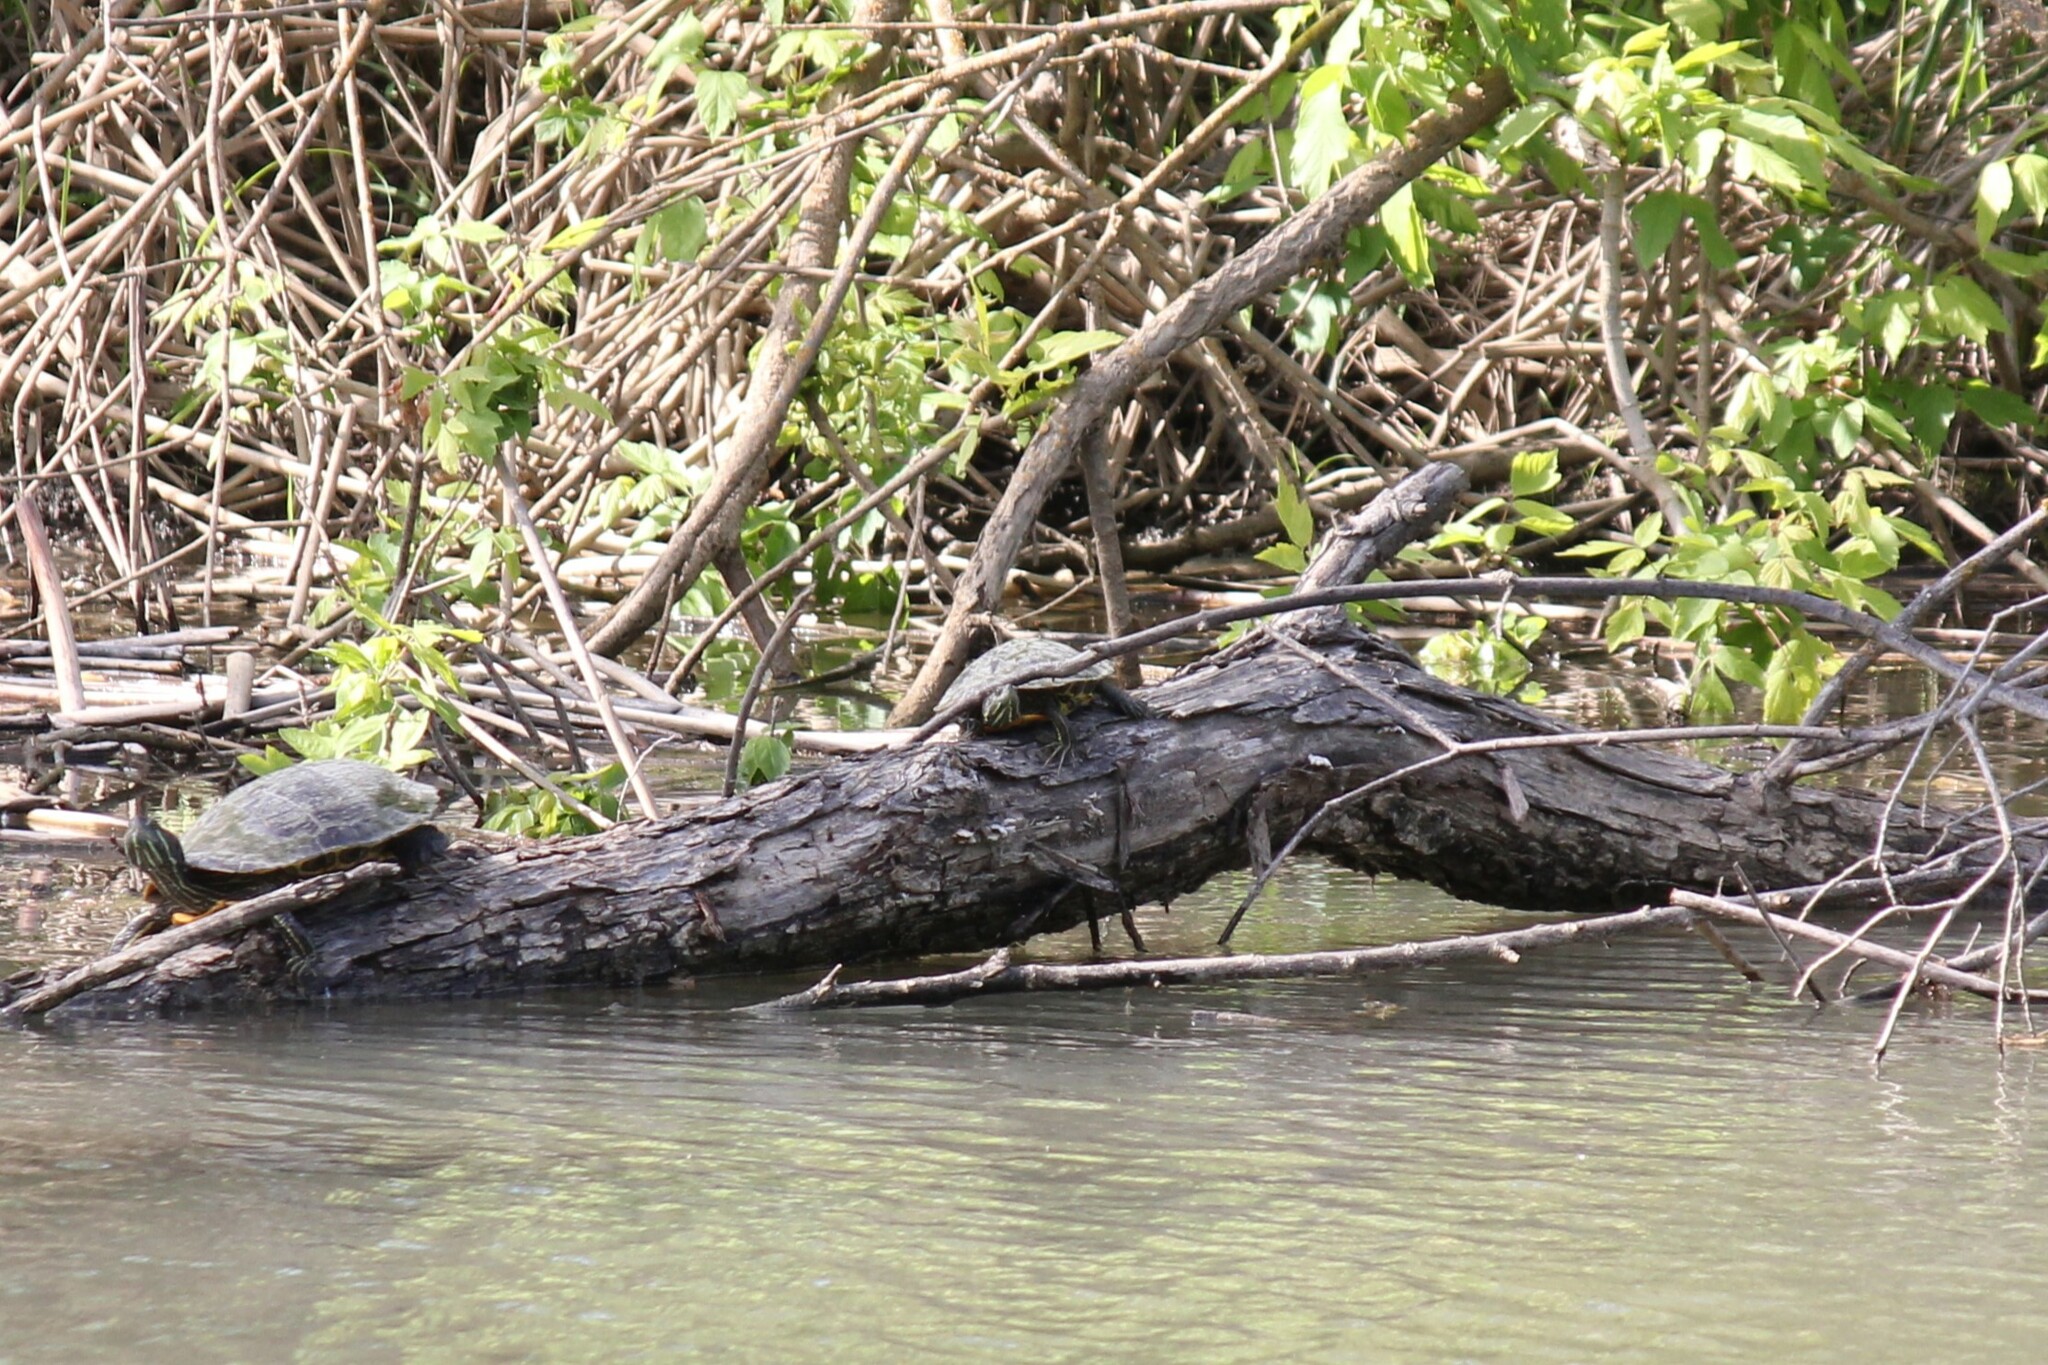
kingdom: Animalia
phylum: Chordata
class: Testudines
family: Emydidae
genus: Trachemys
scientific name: Trachemys scripta
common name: Slider
